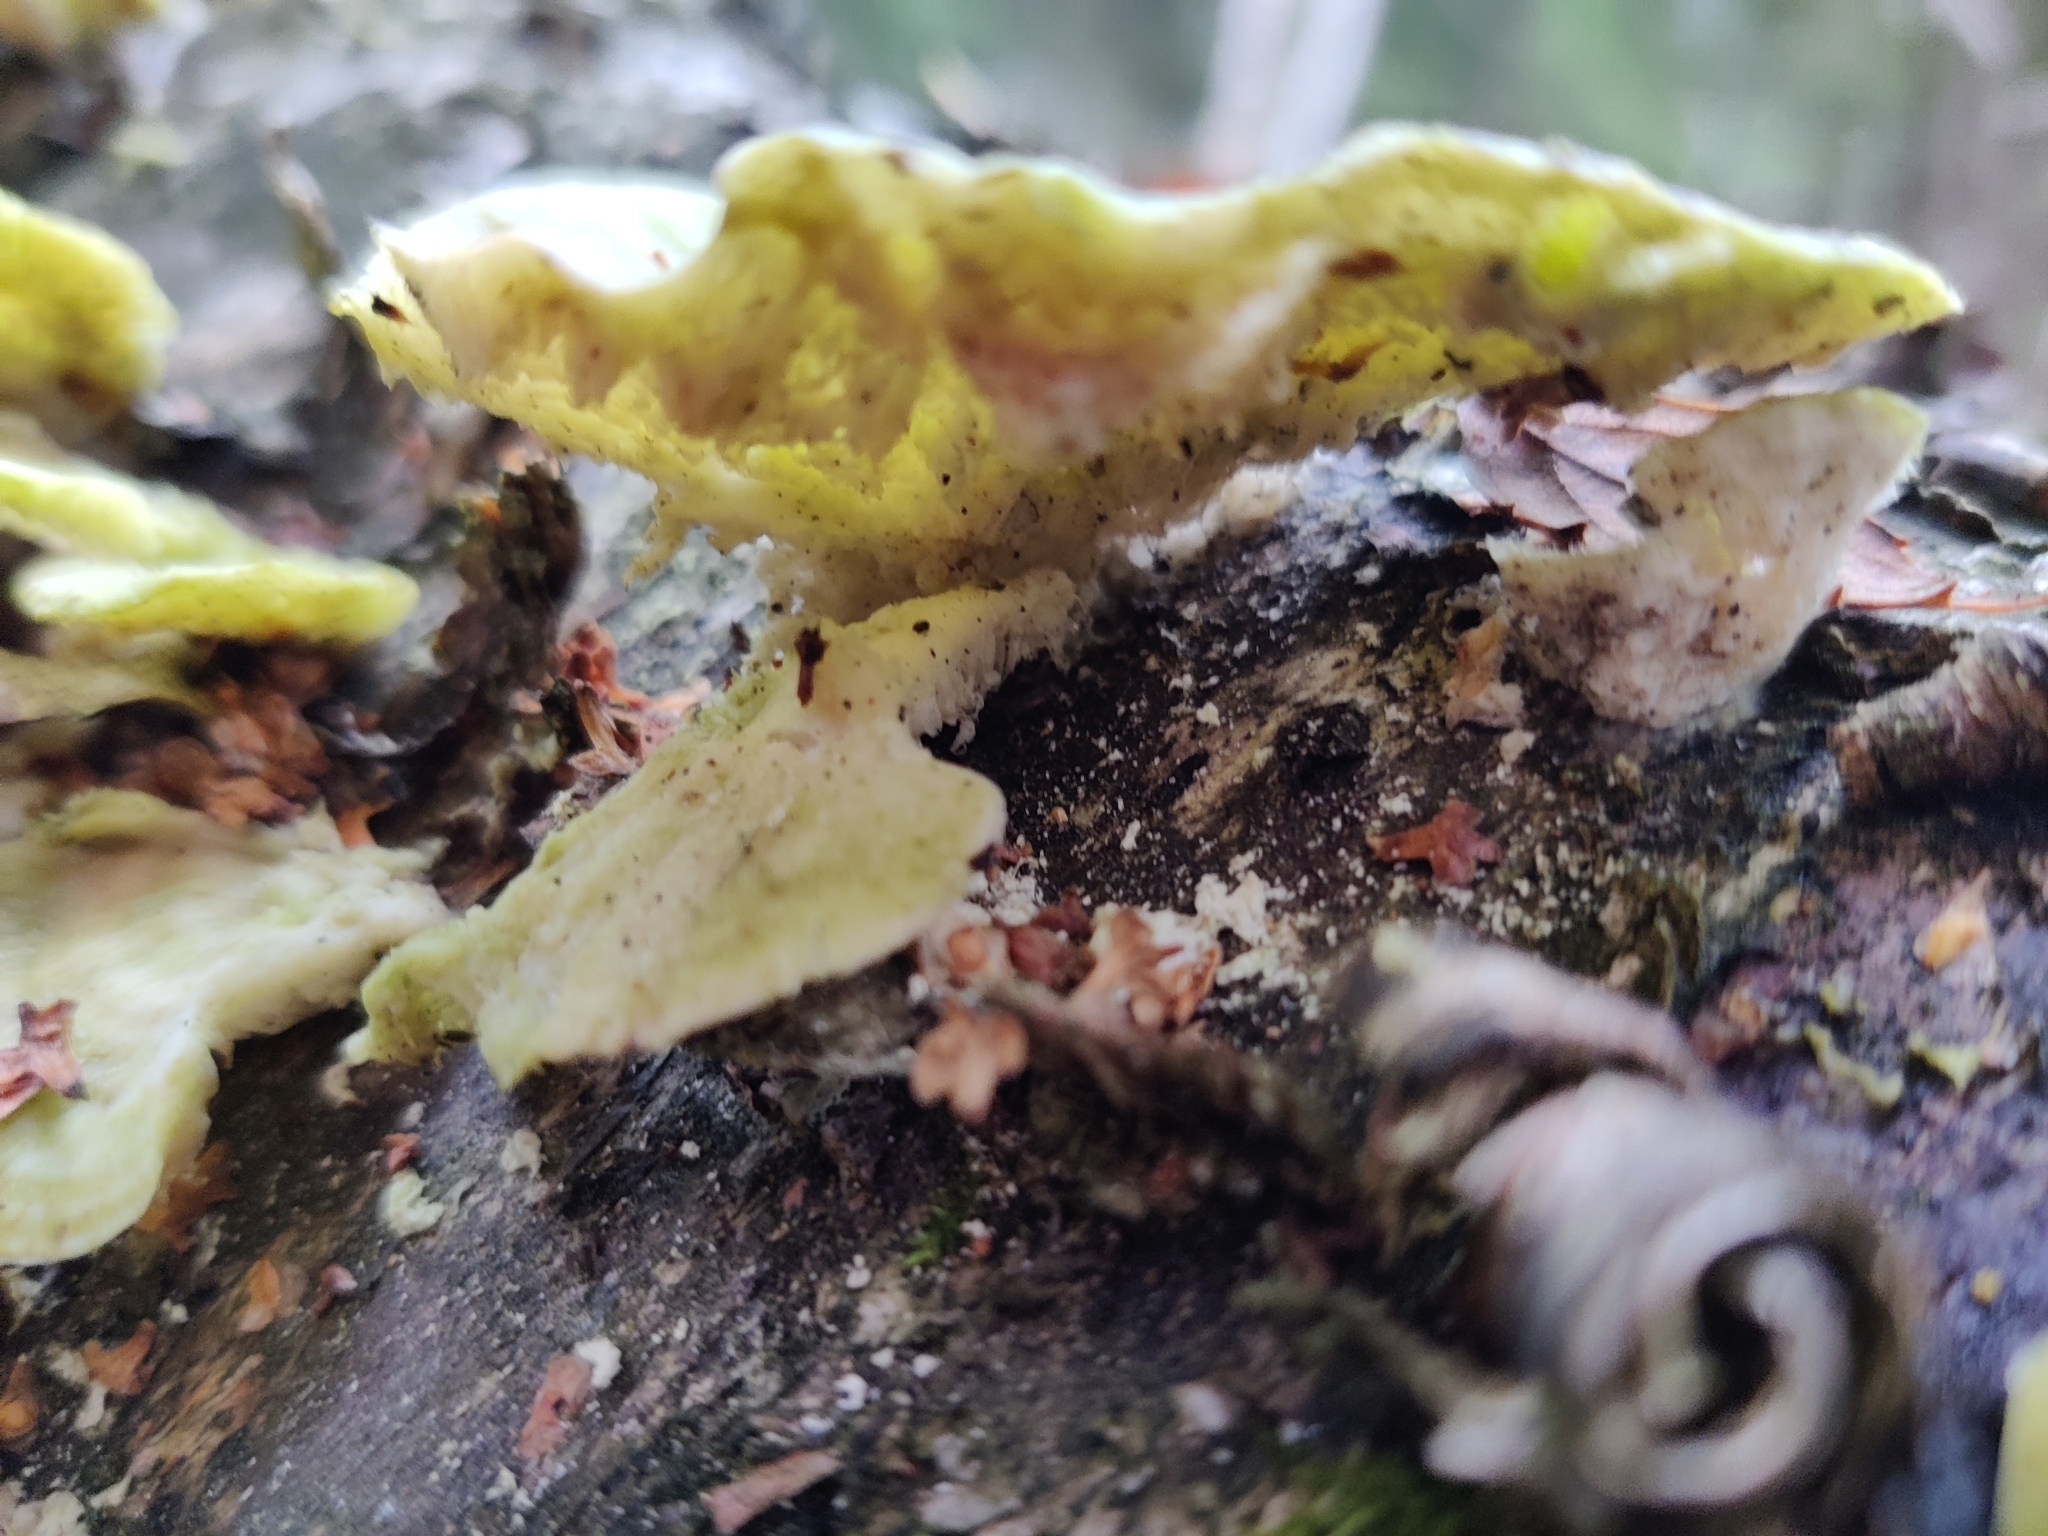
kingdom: Fungi
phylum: Basidiomycota
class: Agaricomycetes
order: Polyporales
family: Cerrenaceae
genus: Cerrena
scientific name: Cerrena unicolor
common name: Mossy maze polypore
